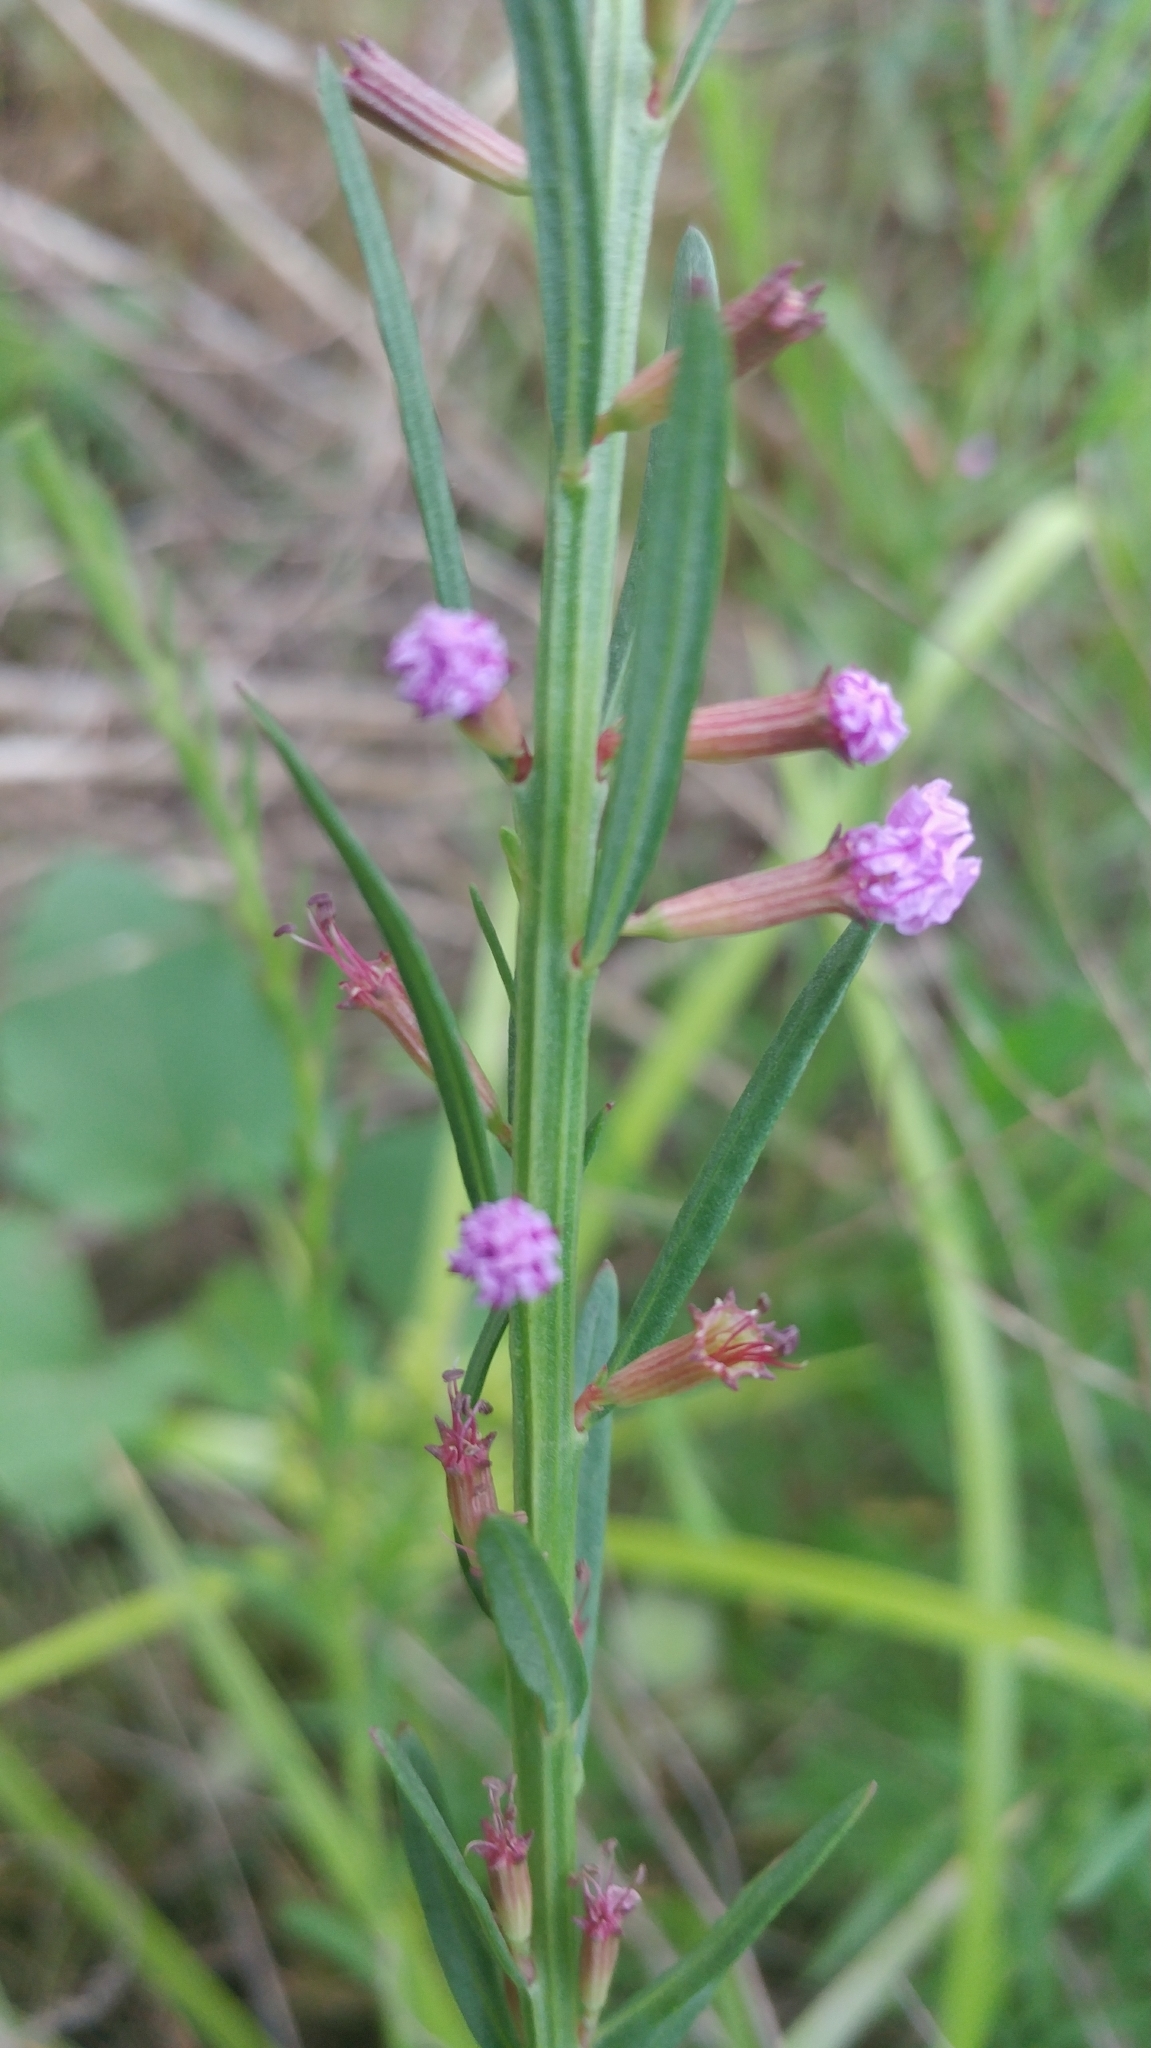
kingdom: Plantae
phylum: Tracheophyta
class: Magnoliopsida
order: Myrtales
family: Lythraceae
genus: Lythrum
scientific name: Lythrum californicum
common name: California loosestrife
